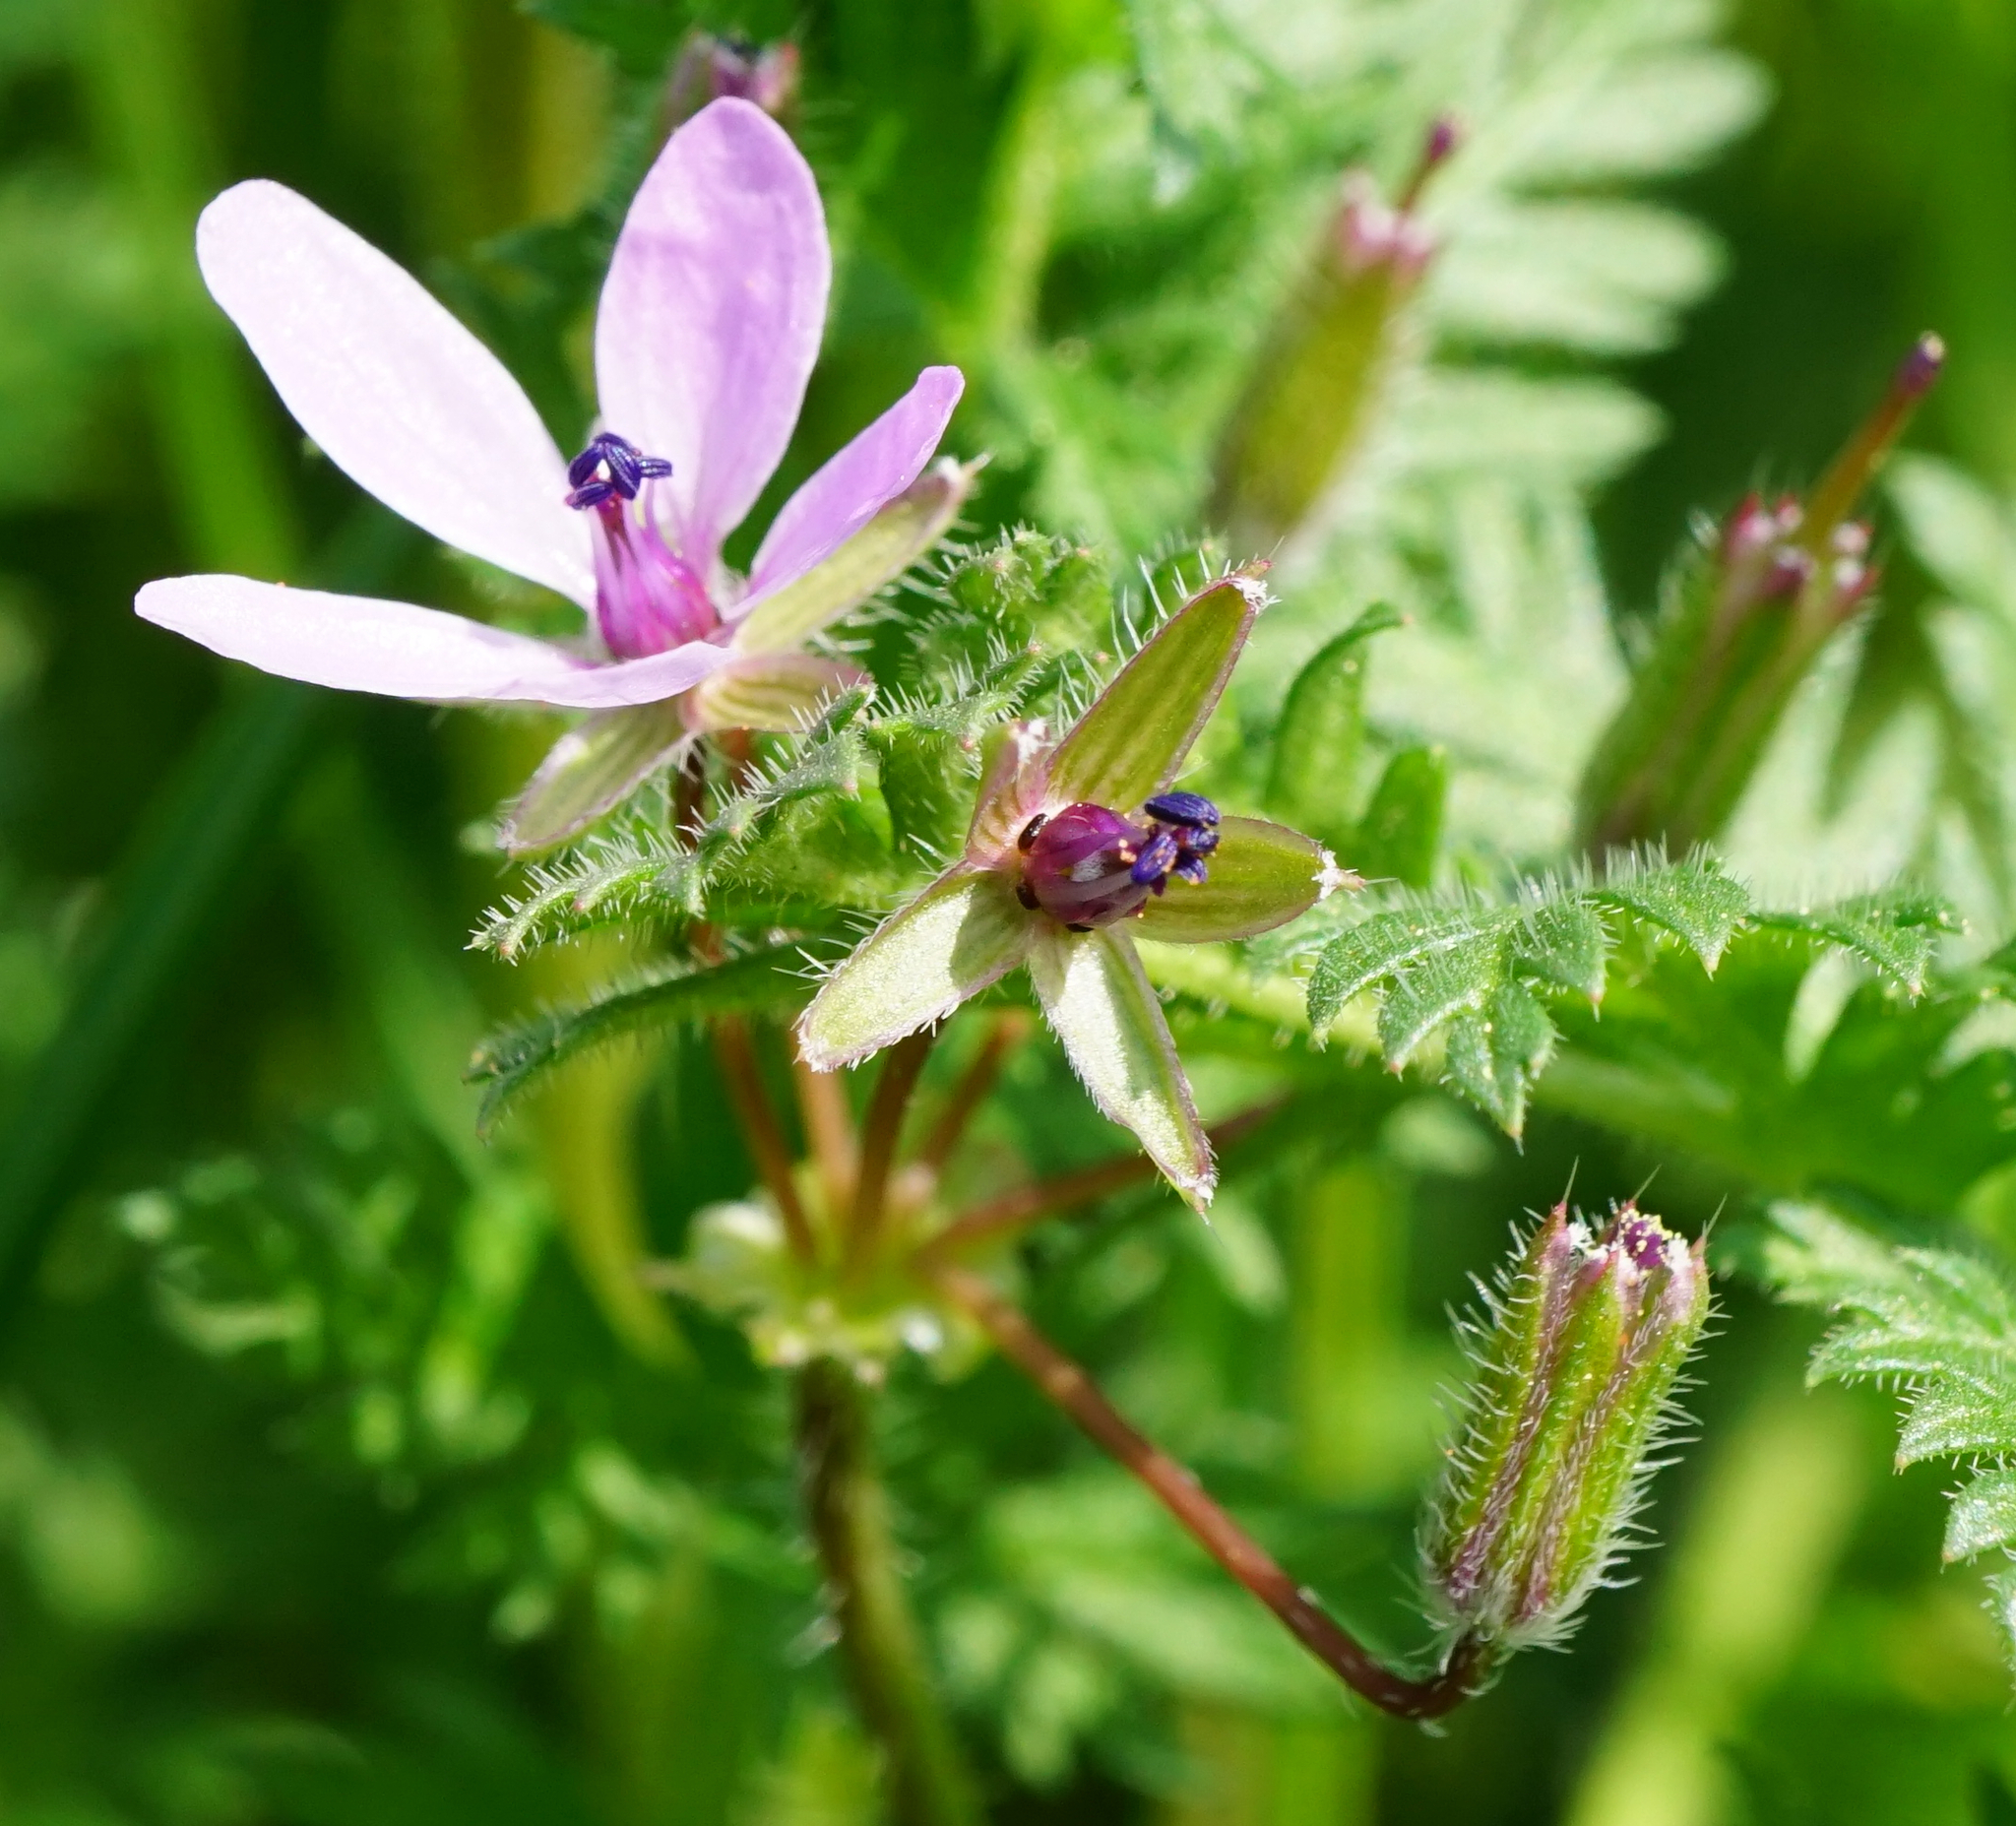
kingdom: Plantae
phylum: Tracheophyta
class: Magnoliopsida
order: Geraniales
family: Geraniaceae
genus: Erodium
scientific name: Erodium cicutarium
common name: Common stork's-bill
